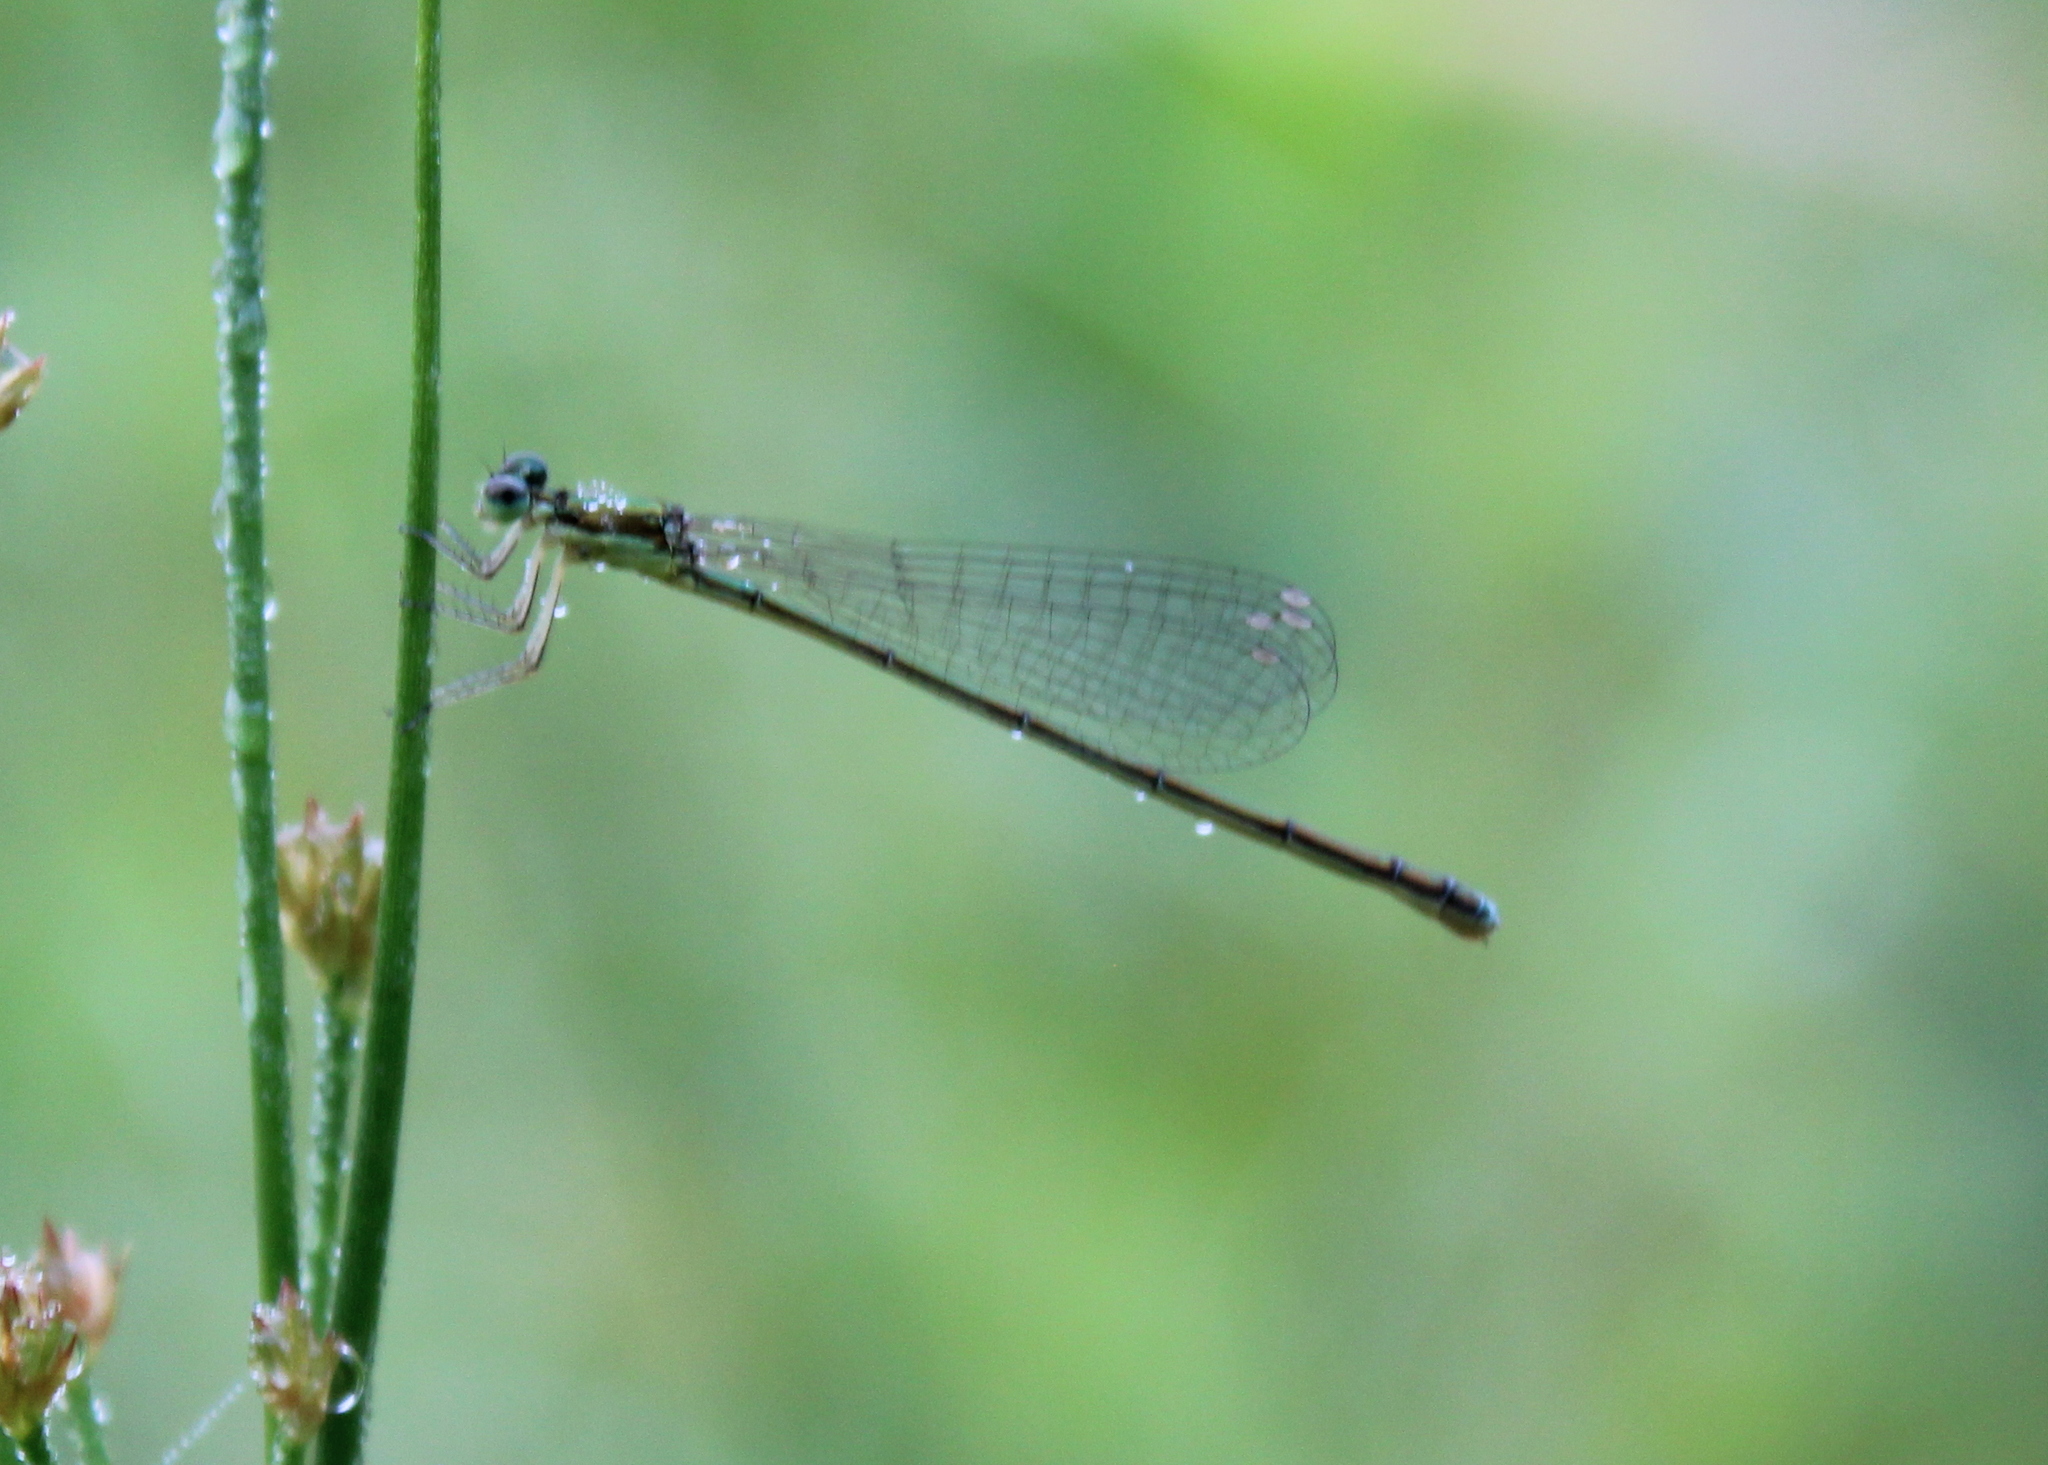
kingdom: Animalia
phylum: Arthropoda
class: Insecta
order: Odonata
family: Coenagrionidae
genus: Nehalennia
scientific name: Nehalennia irene
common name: Sedge sprite
